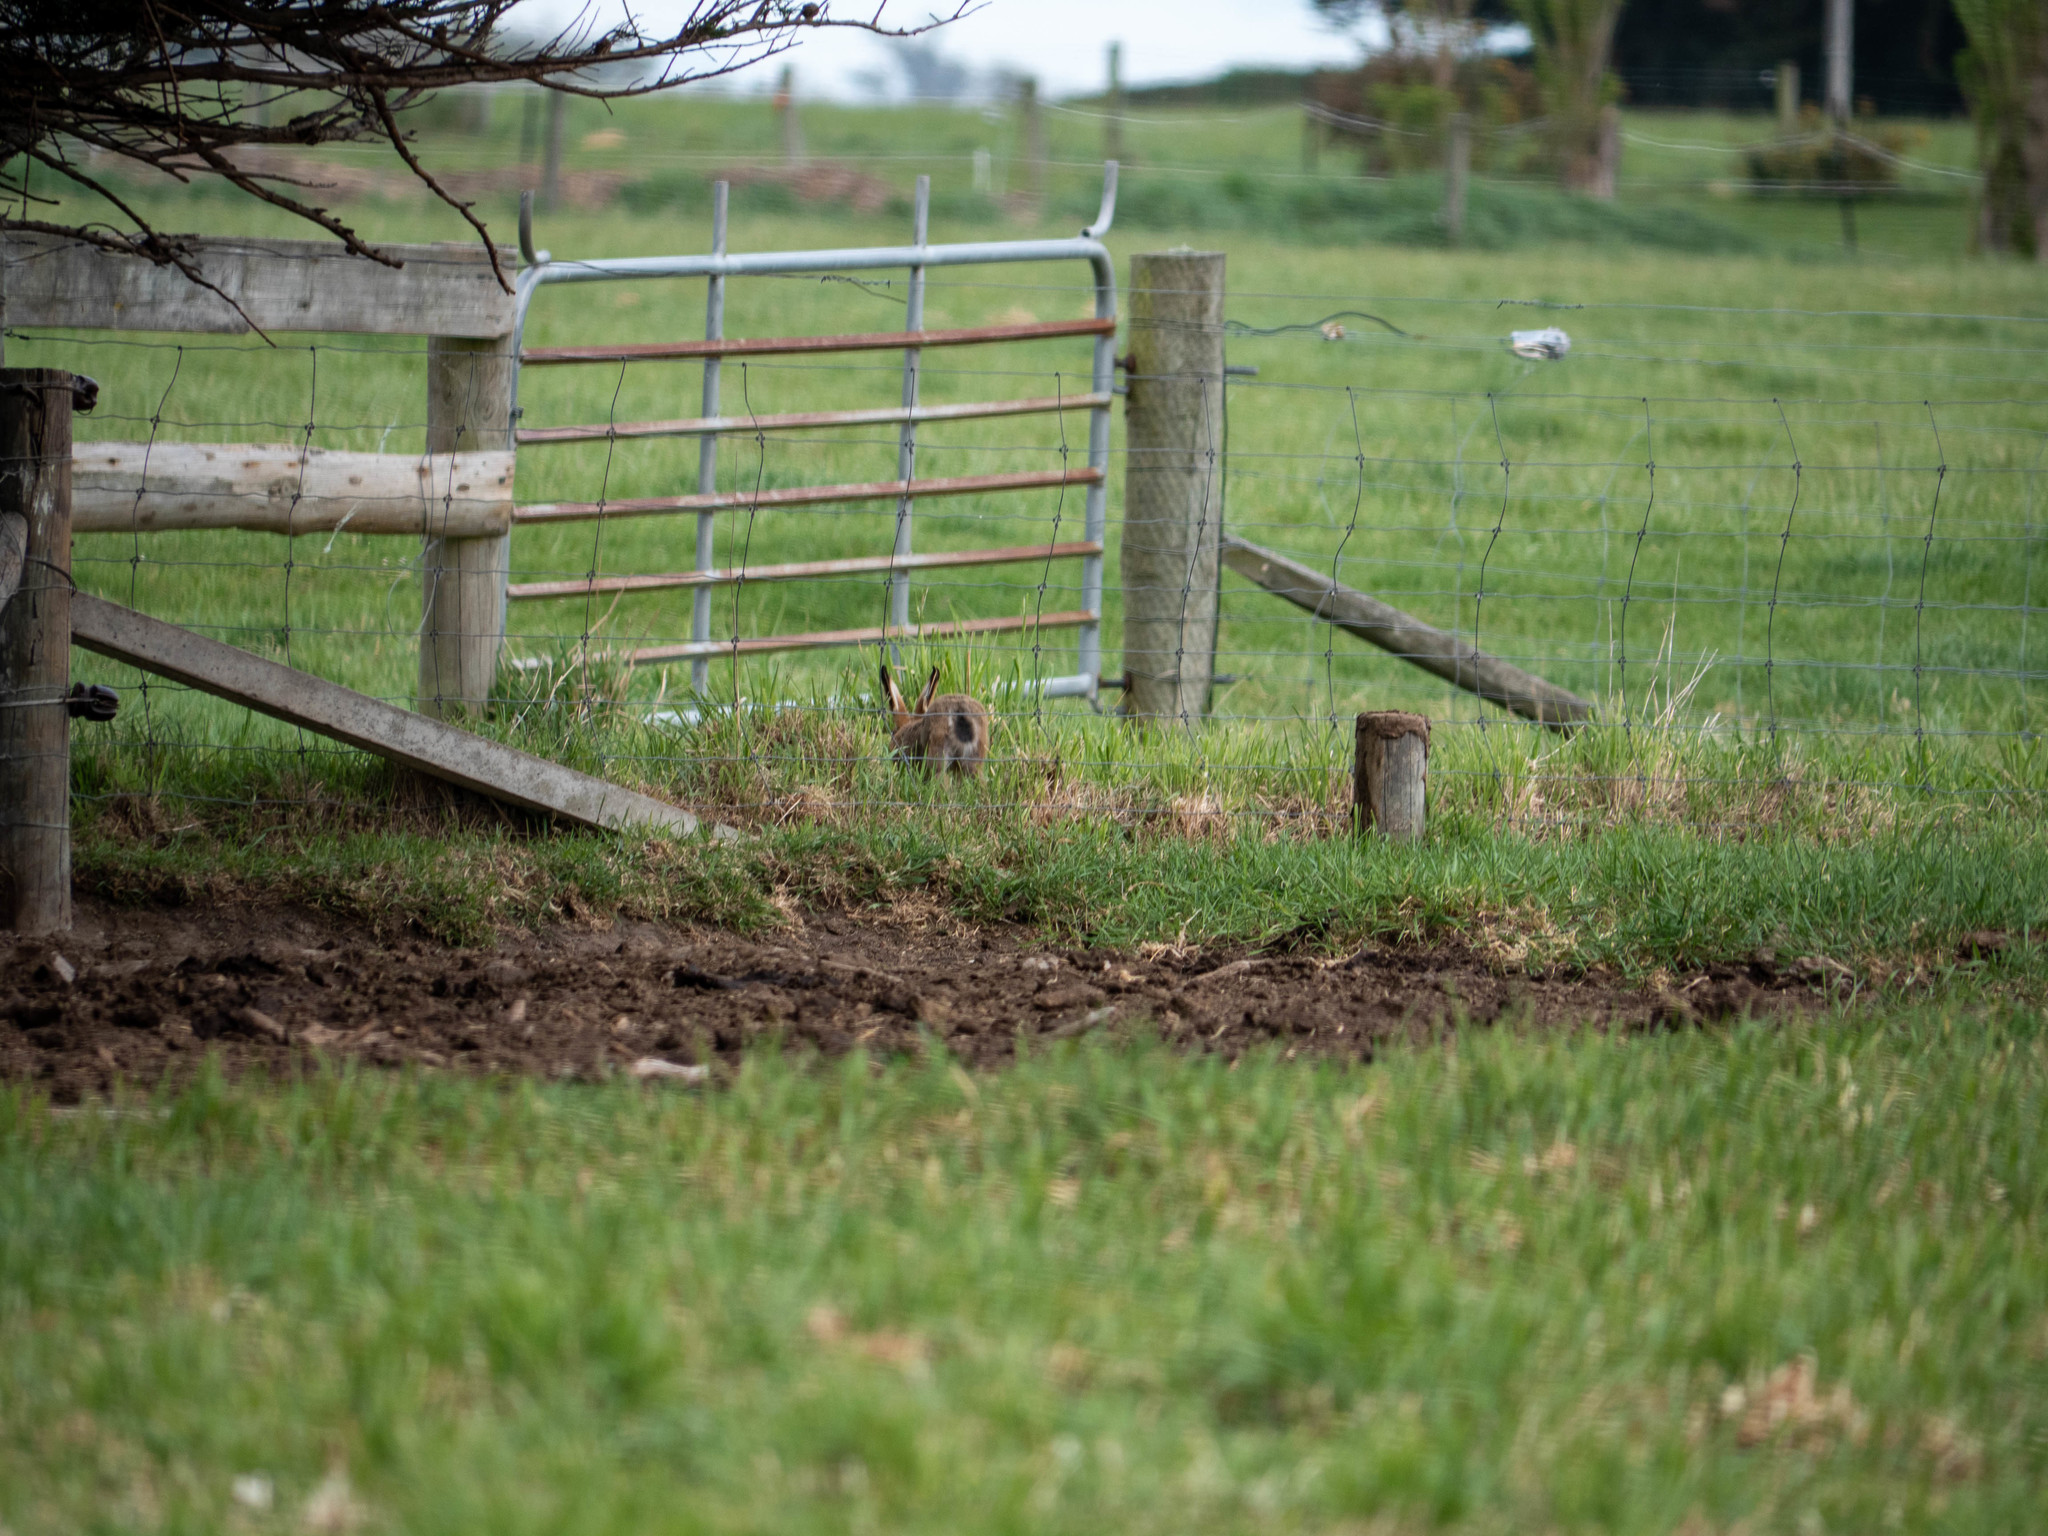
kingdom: Animalia
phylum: Chordata
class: Mammalia
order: Lagomorpha
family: Leporidae
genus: Lepus
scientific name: Lepus europaeus
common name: European hare
